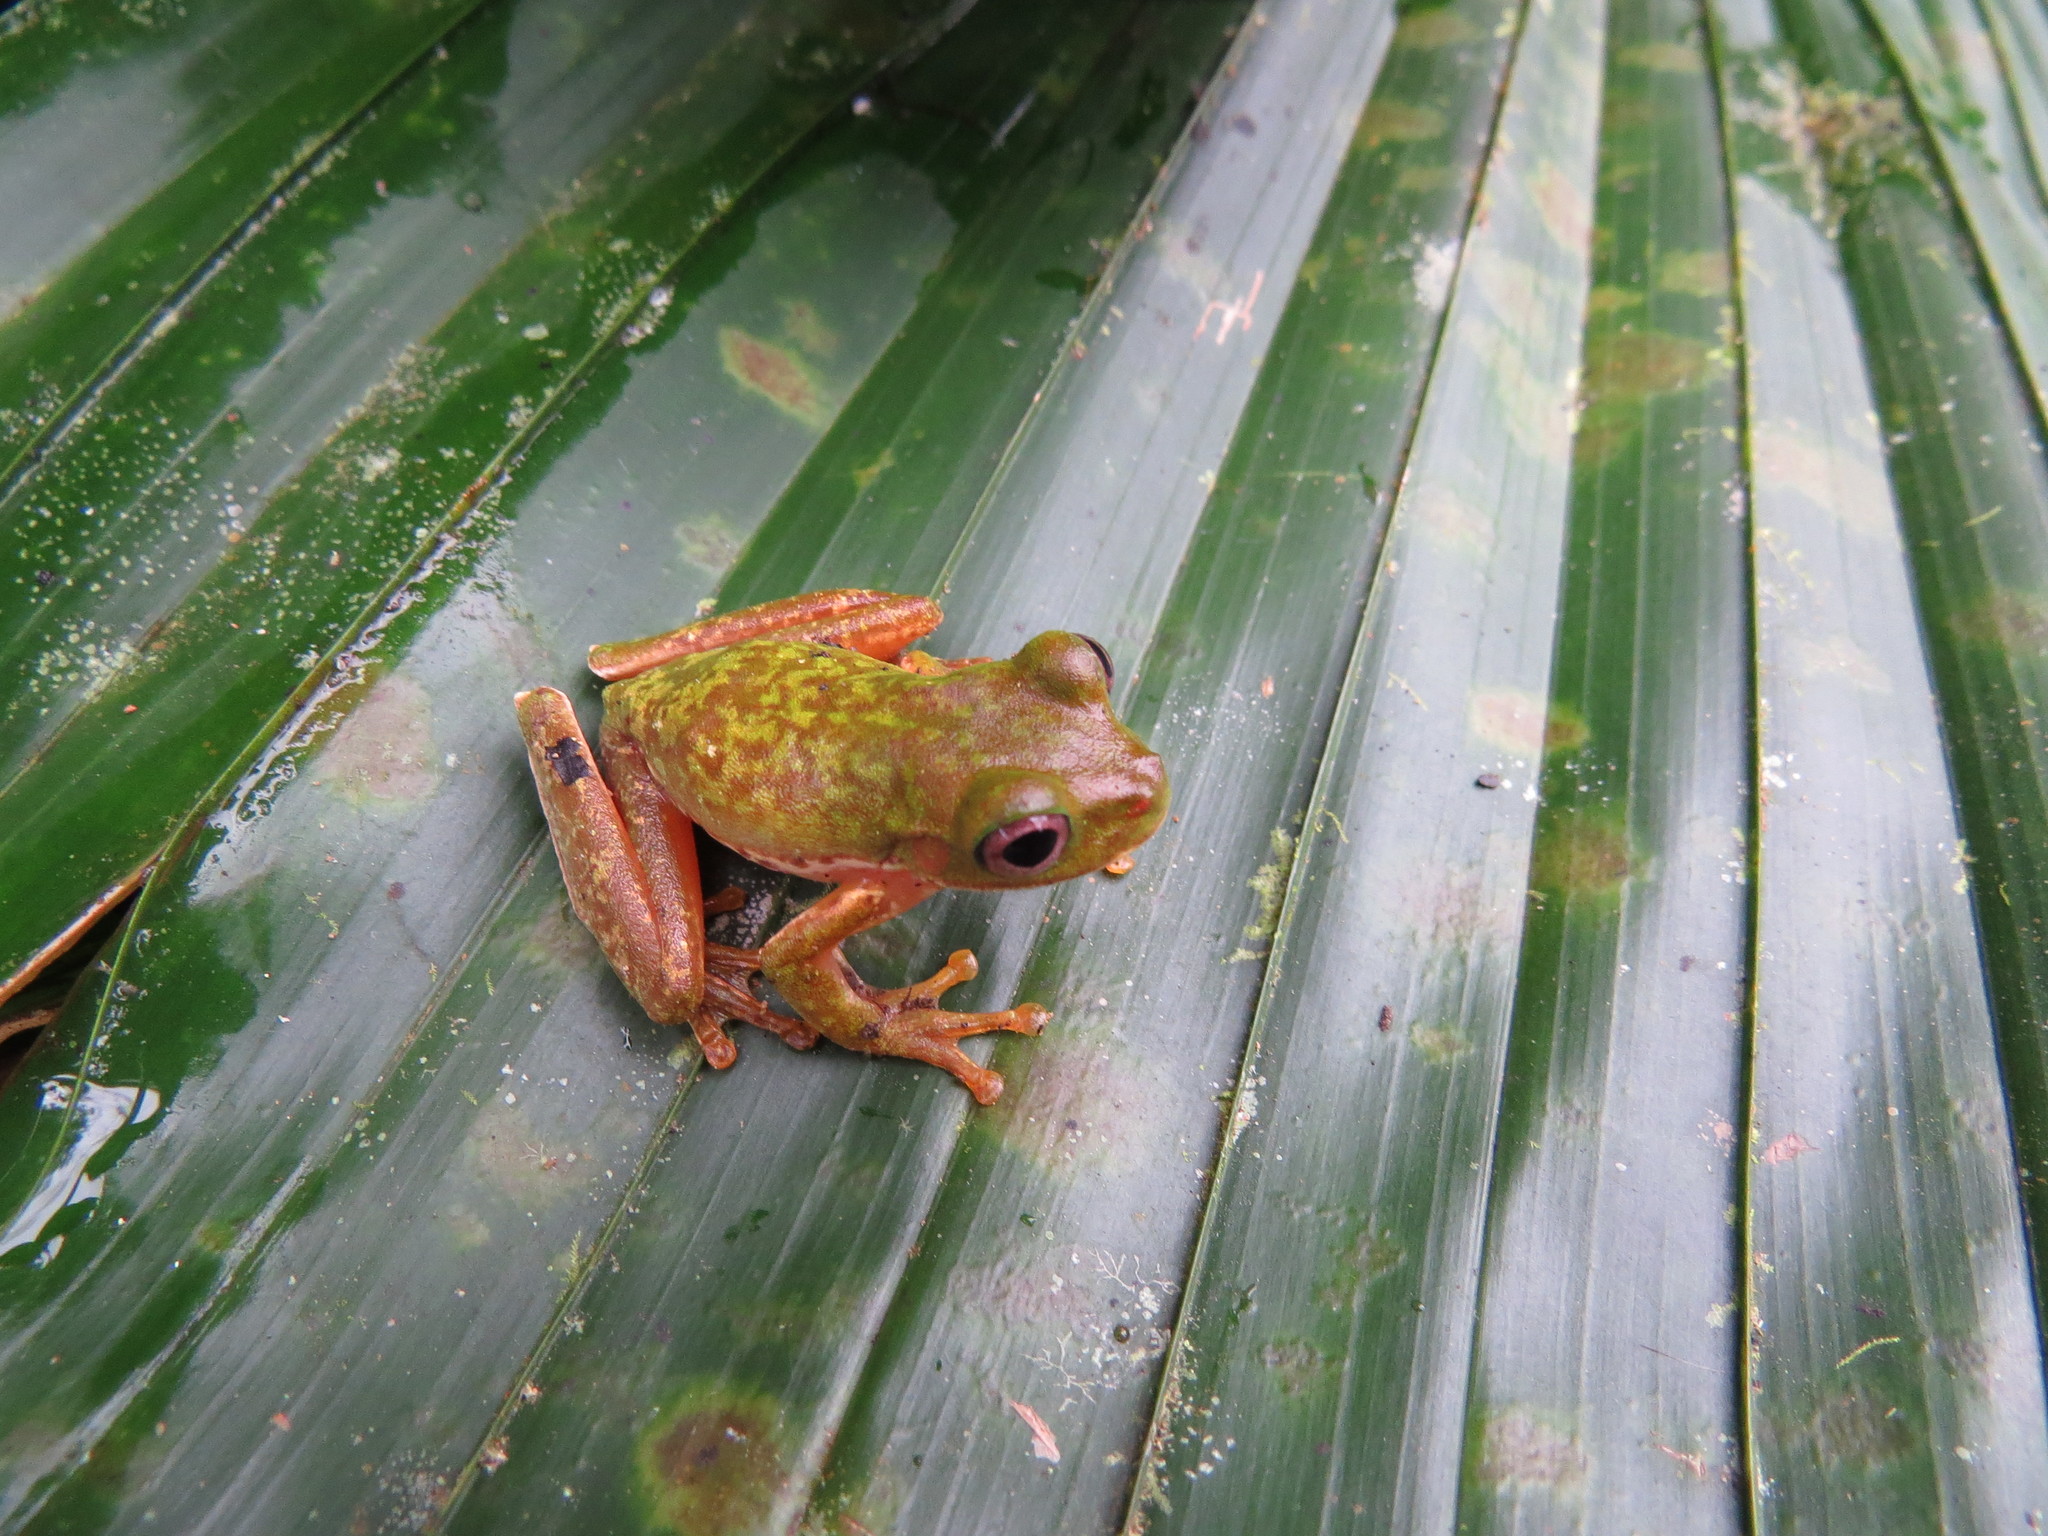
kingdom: Animalia
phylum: Chordata
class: Amphibia
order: Anura
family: Hylidae
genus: Duellmanohyla
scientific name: Duellmanohyla chamulae
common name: Chamula mountain brook frog
